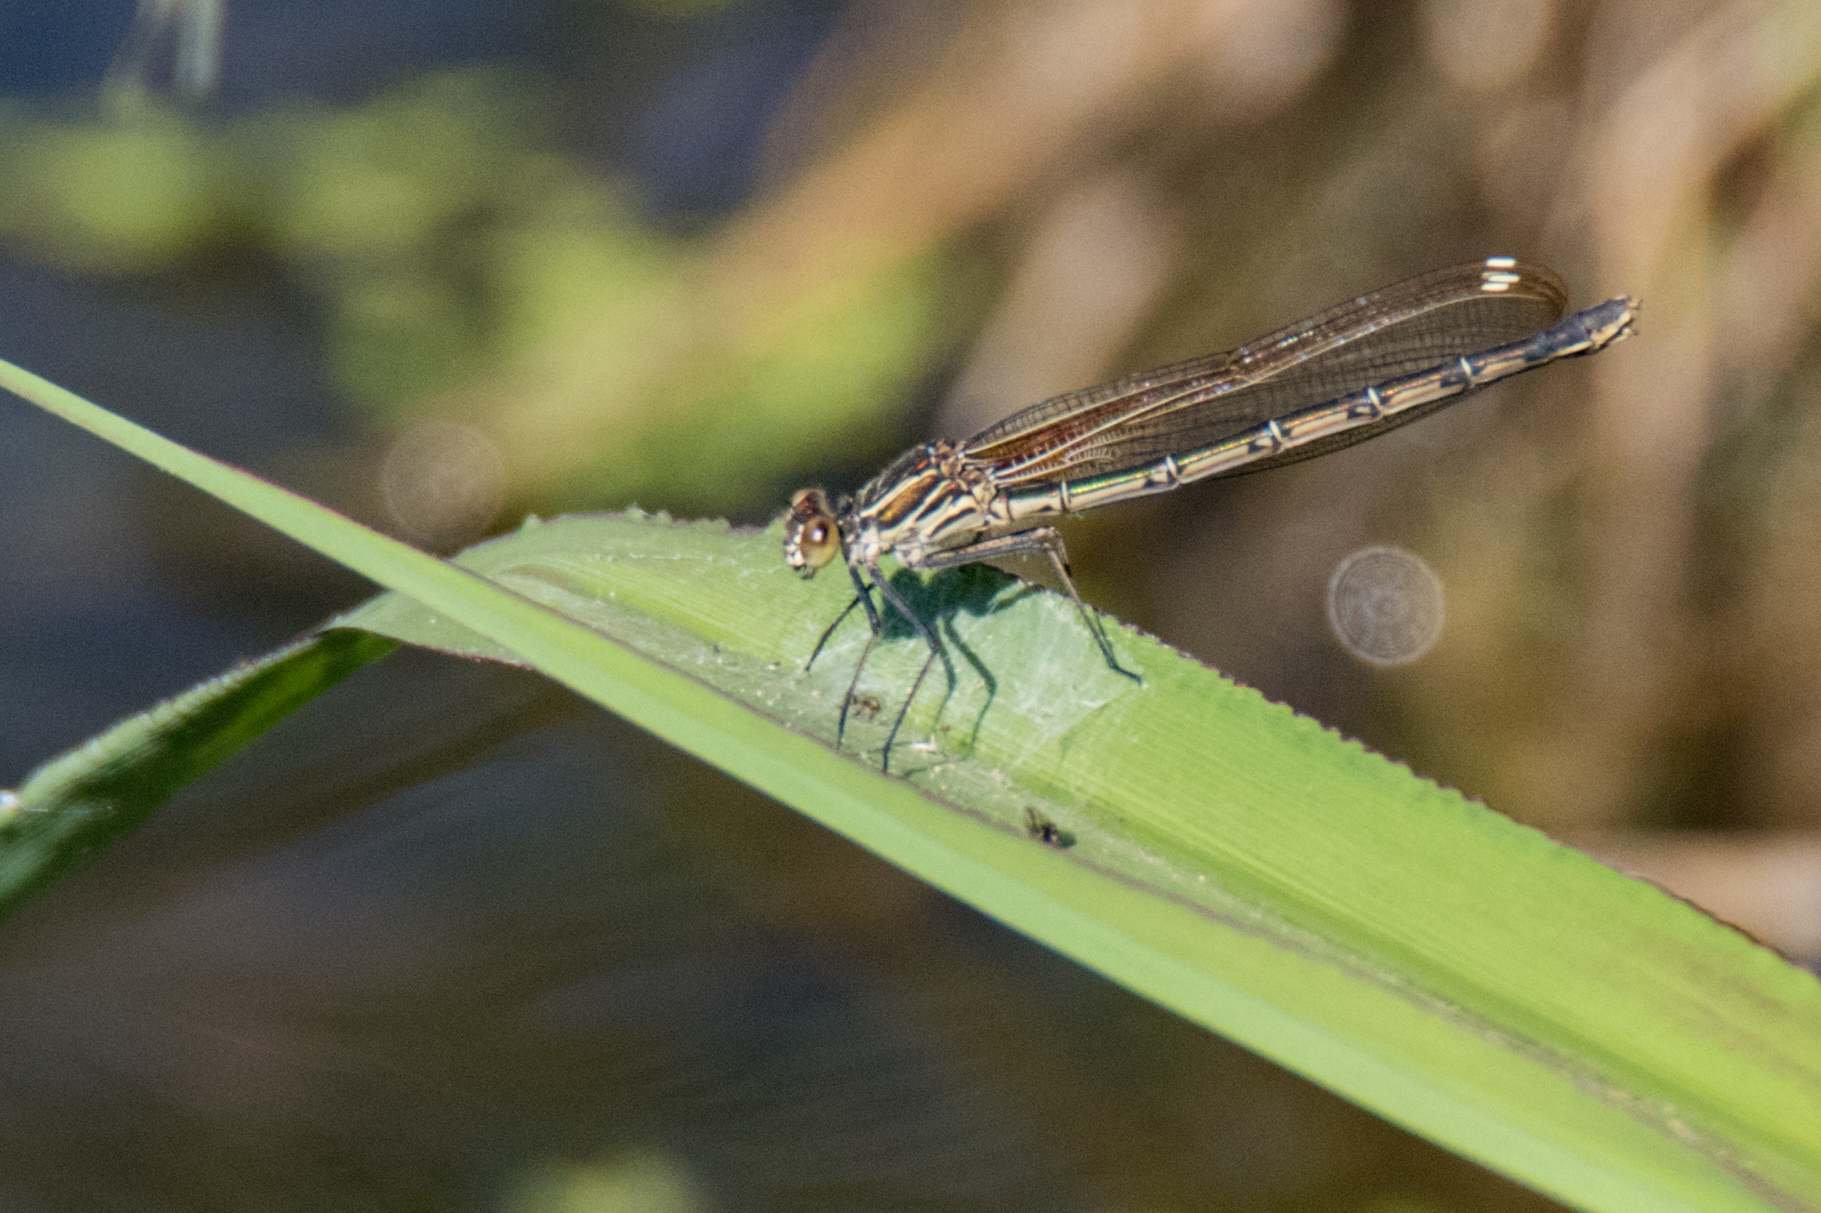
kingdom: Animalia
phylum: Arthropoda
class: Insecta
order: Odonata
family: Calopterygidae
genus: Hetaerina
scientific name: Hetaerina americana
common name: American rubyspot
